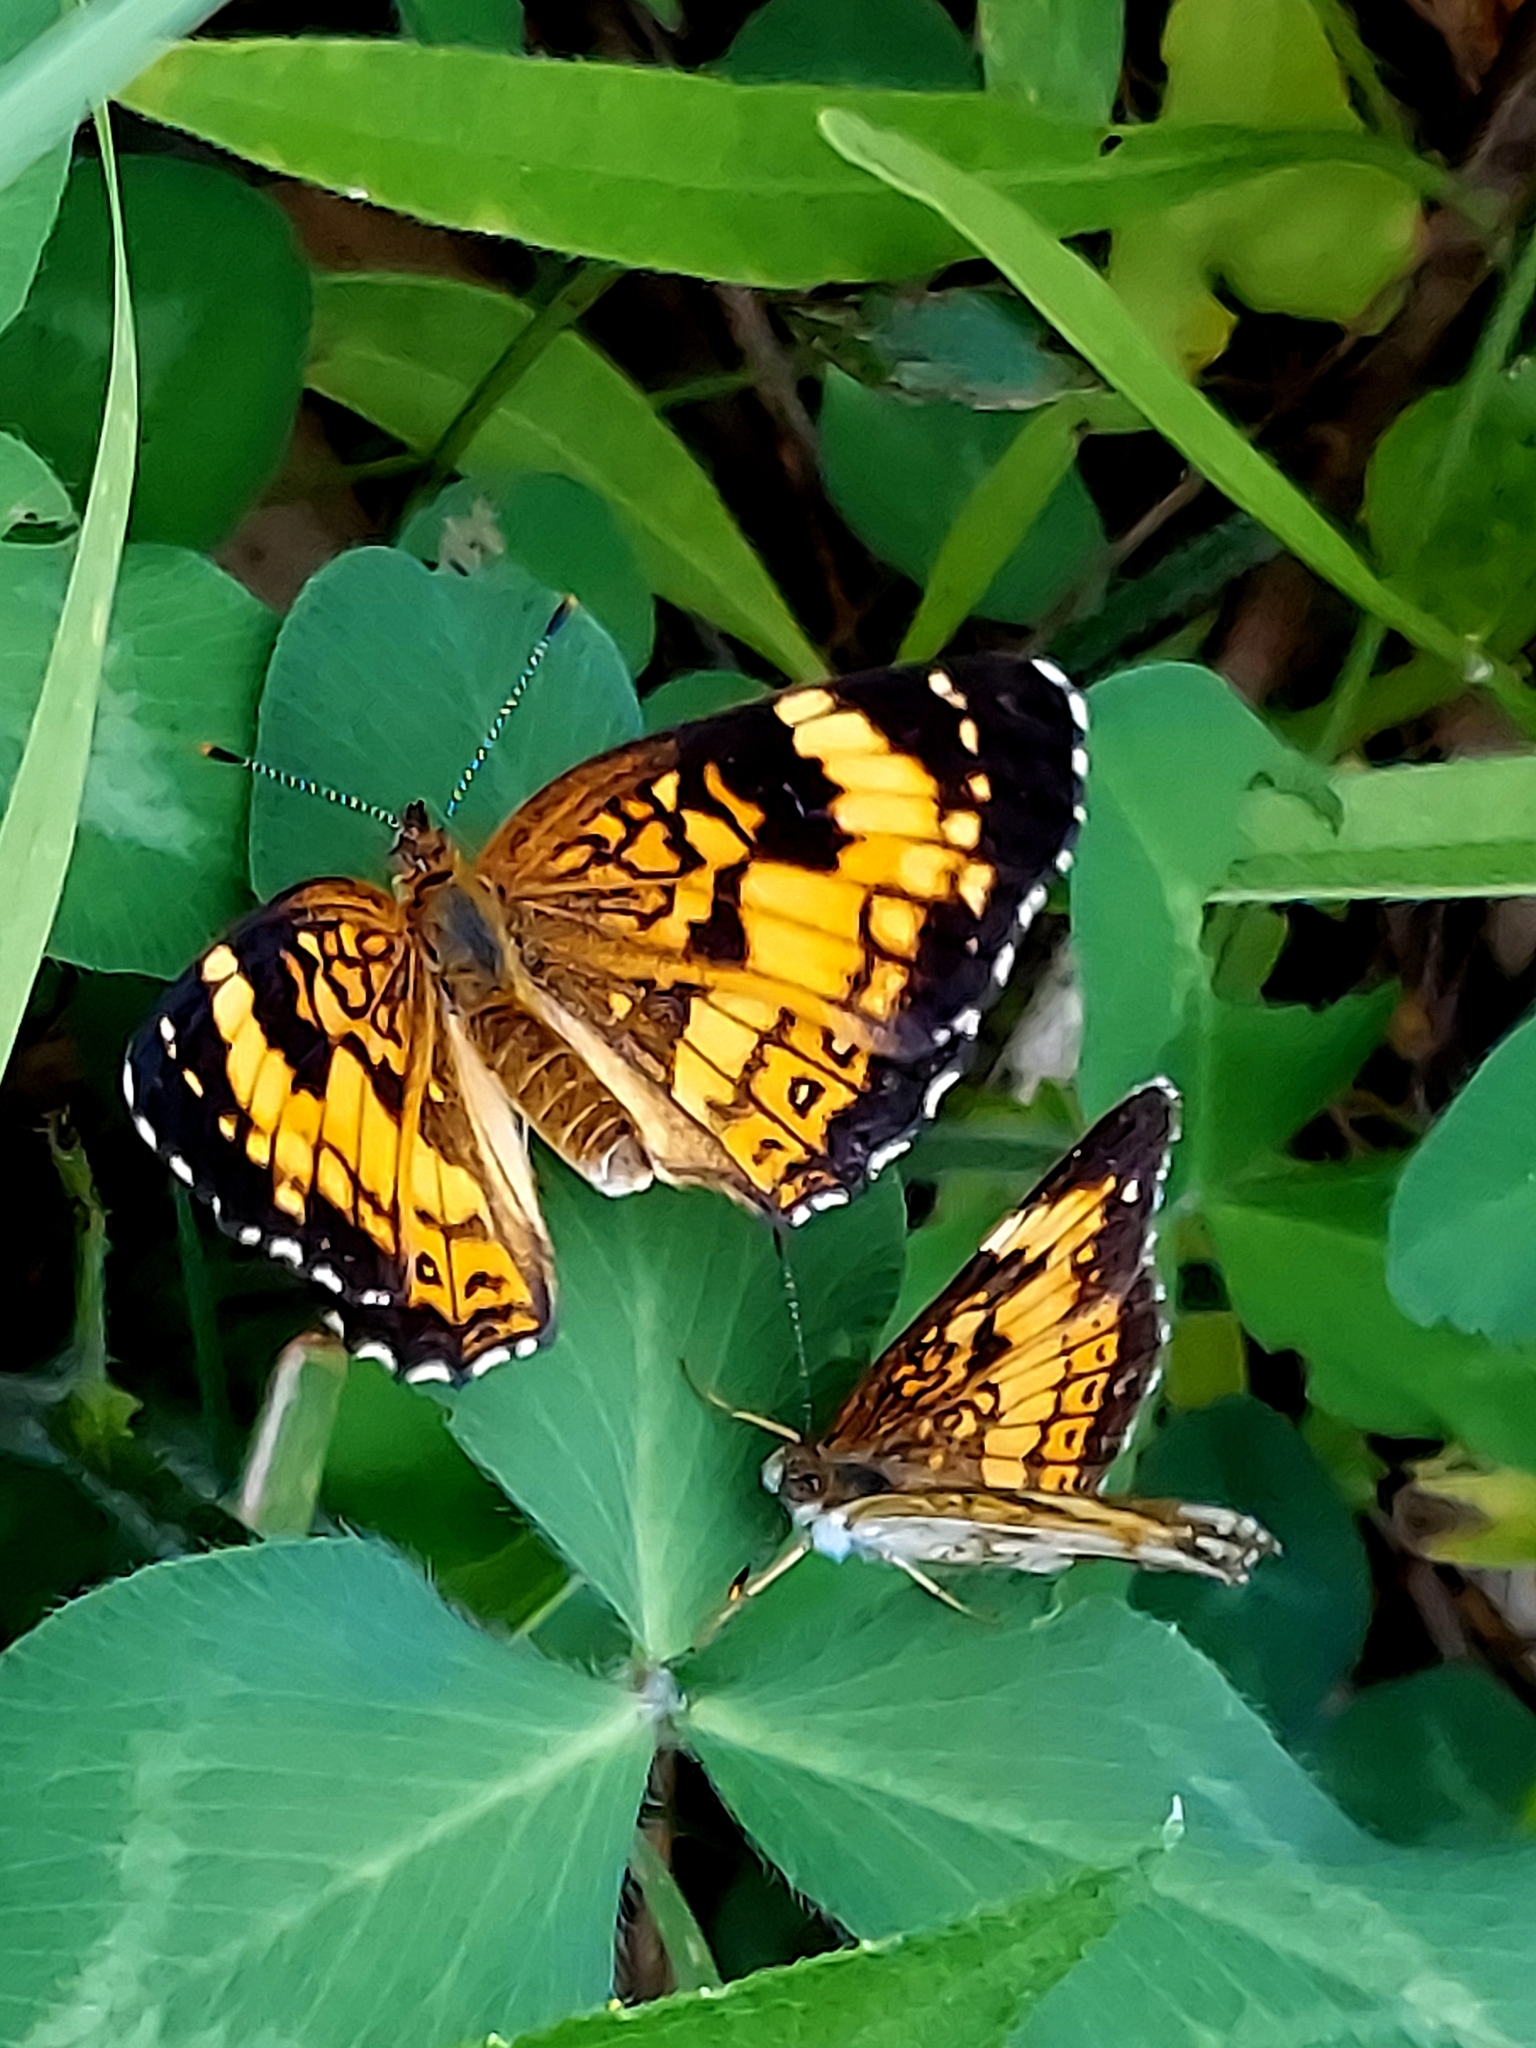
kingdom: Animalia
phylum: Arthropoda
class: Insecta
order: Lepidoptera
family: Nymphalidae
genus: Chlosyne
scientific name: Chlosyne nycteis
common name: Silvery checkerspot
